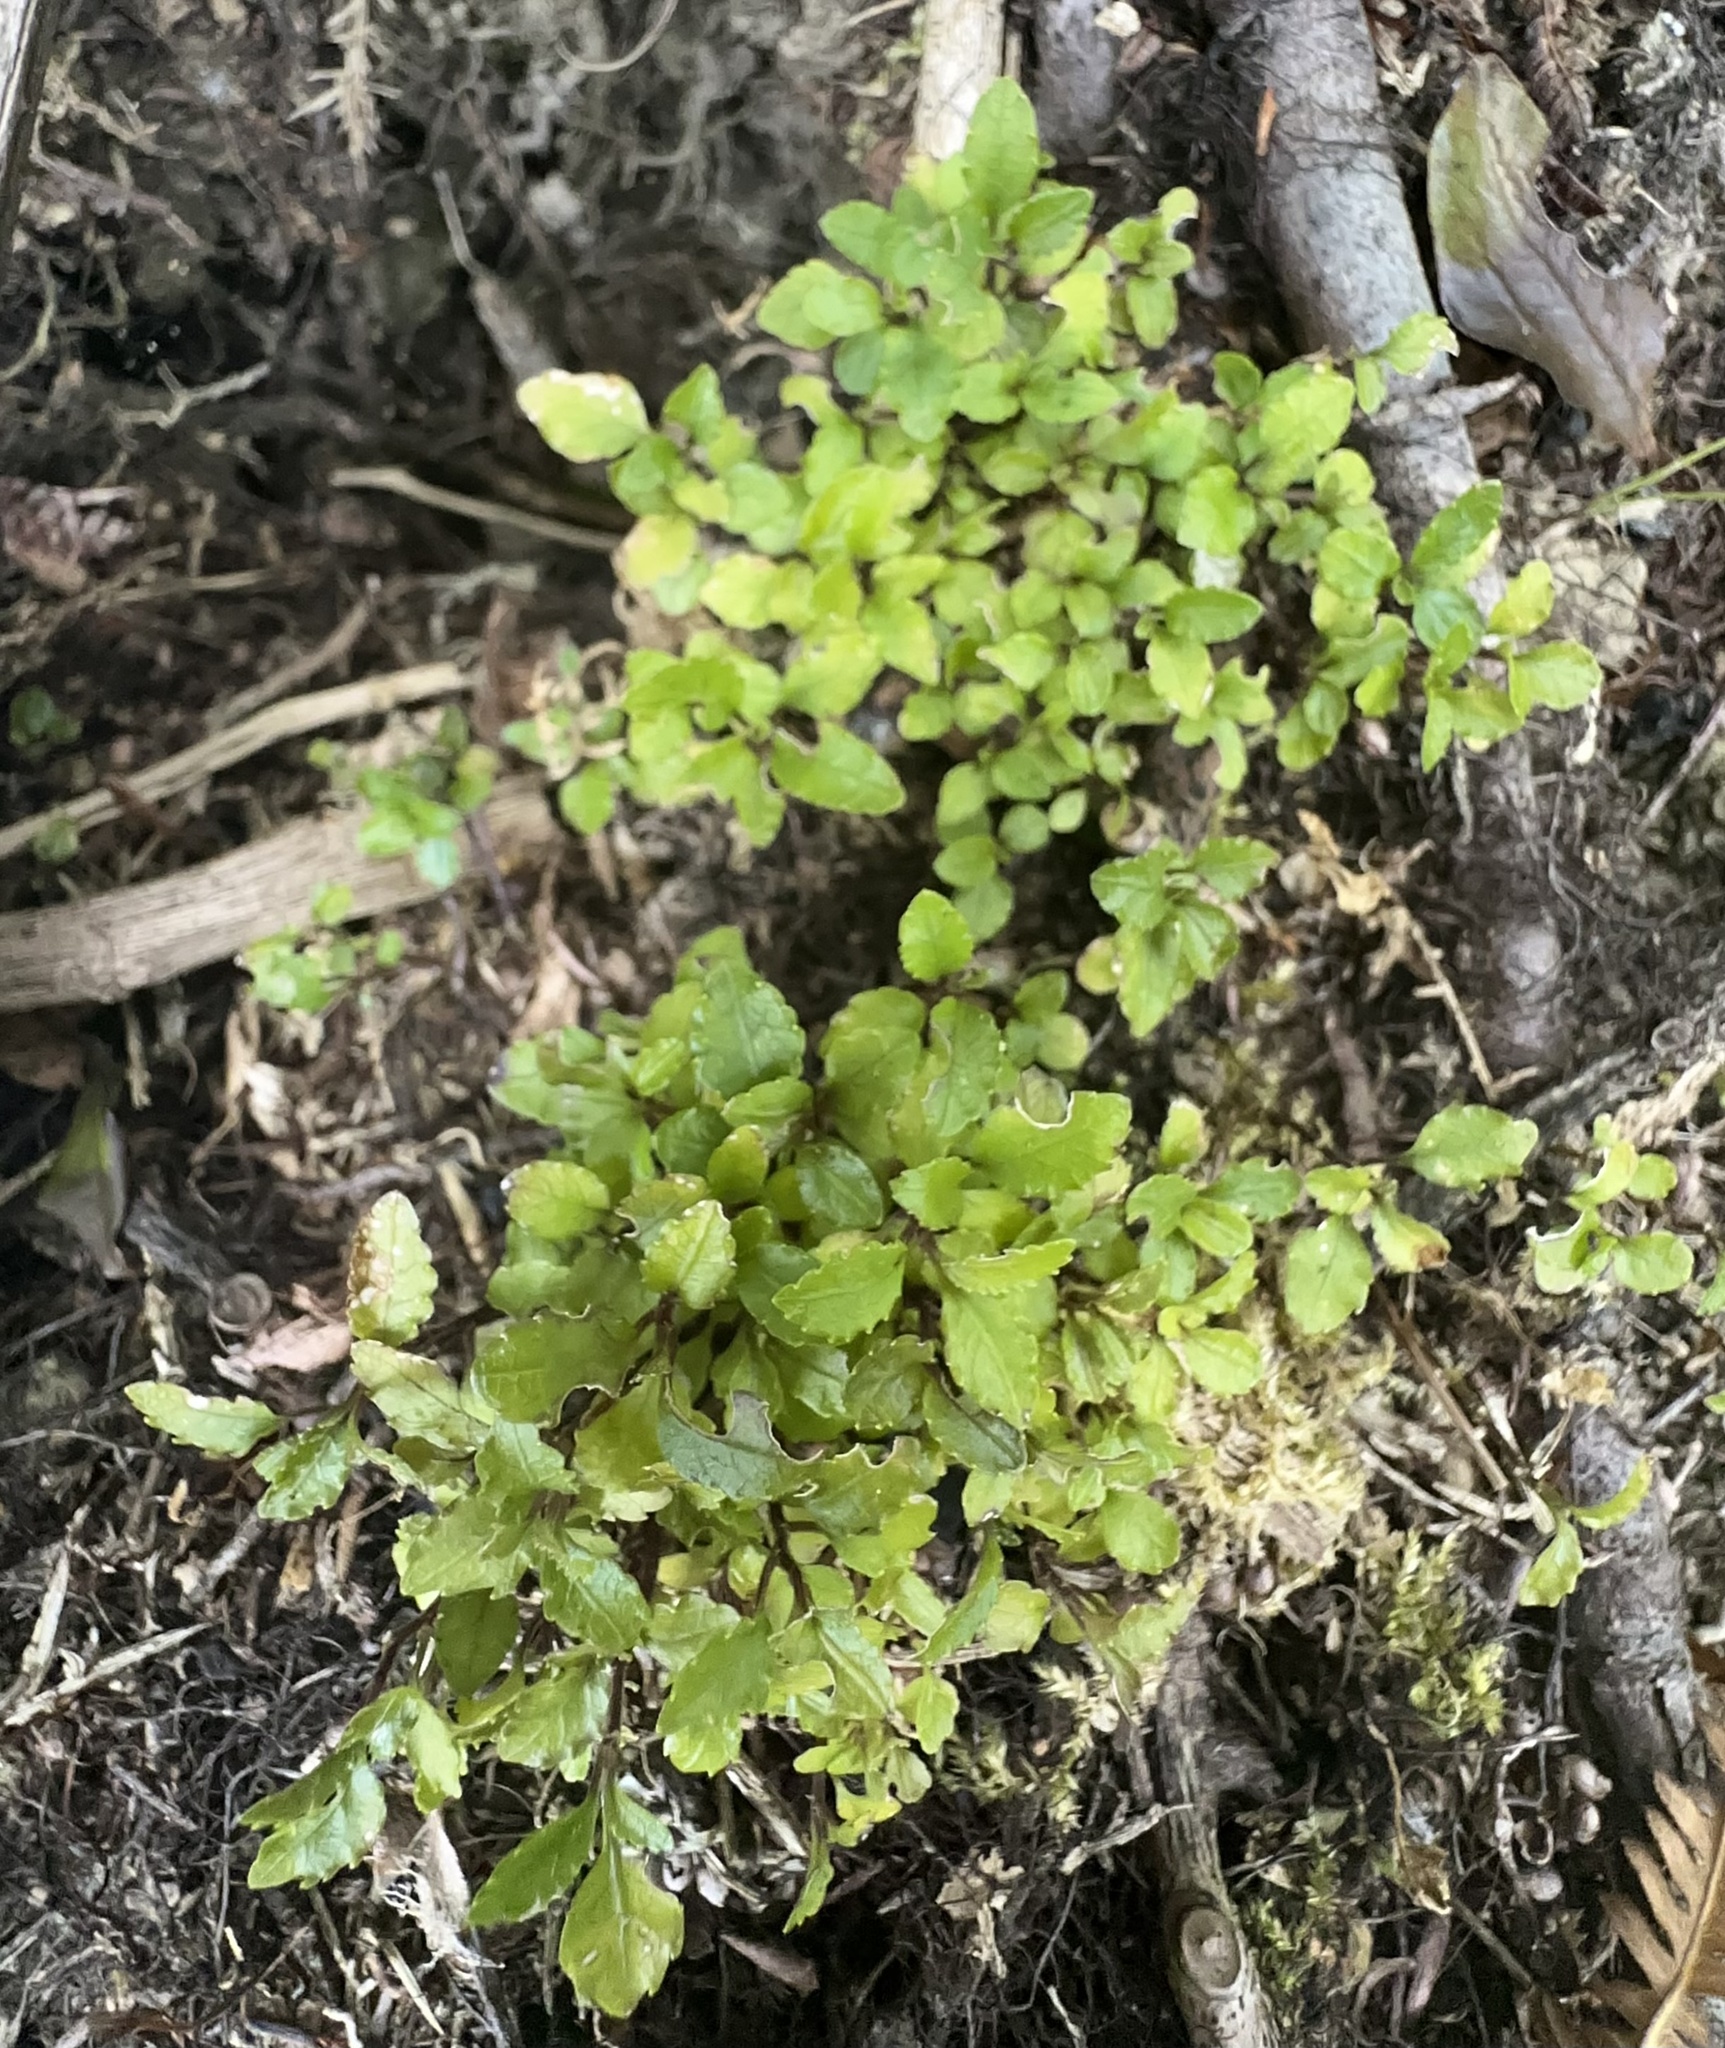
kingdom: Plantae
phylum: Tracheophyta
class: Magnoliopsida
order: Oxalidales
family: Cunoniaceae
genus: Pterophylla
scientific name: Pterophylla racemosa
